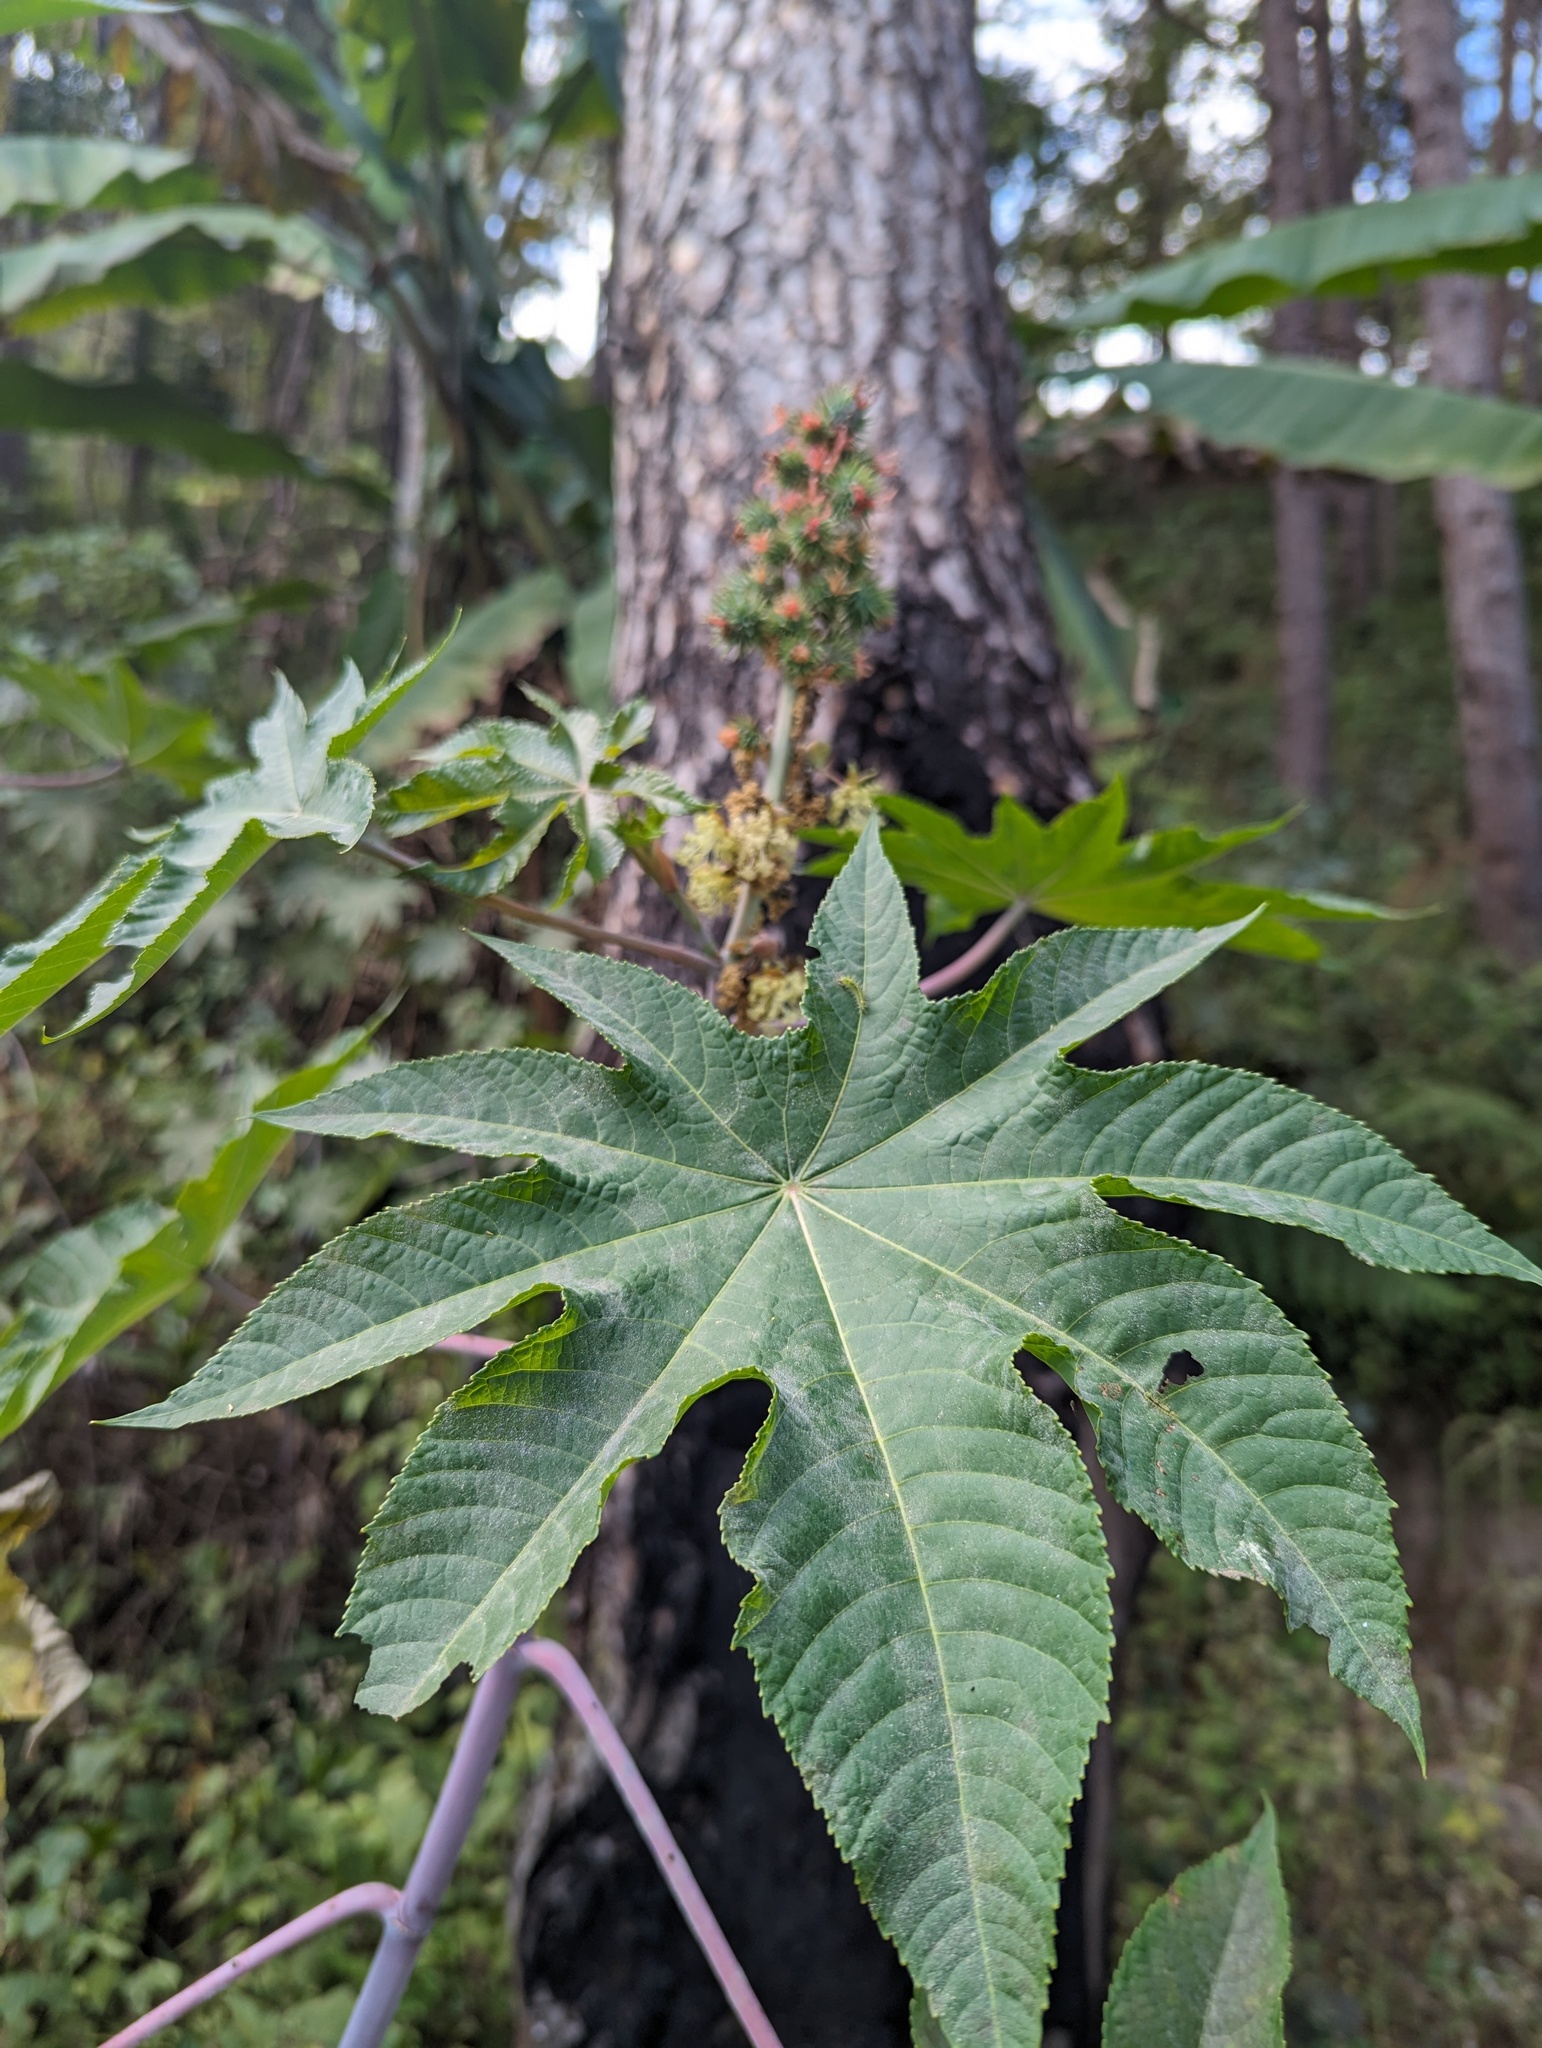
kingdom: Plantae
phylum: Tracheophyta
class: Magnoliopsida
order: Malpighiales
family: Euphorbiaceae
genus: Ricinus
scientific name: Ricinus communis
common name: Castor-oil-plant
